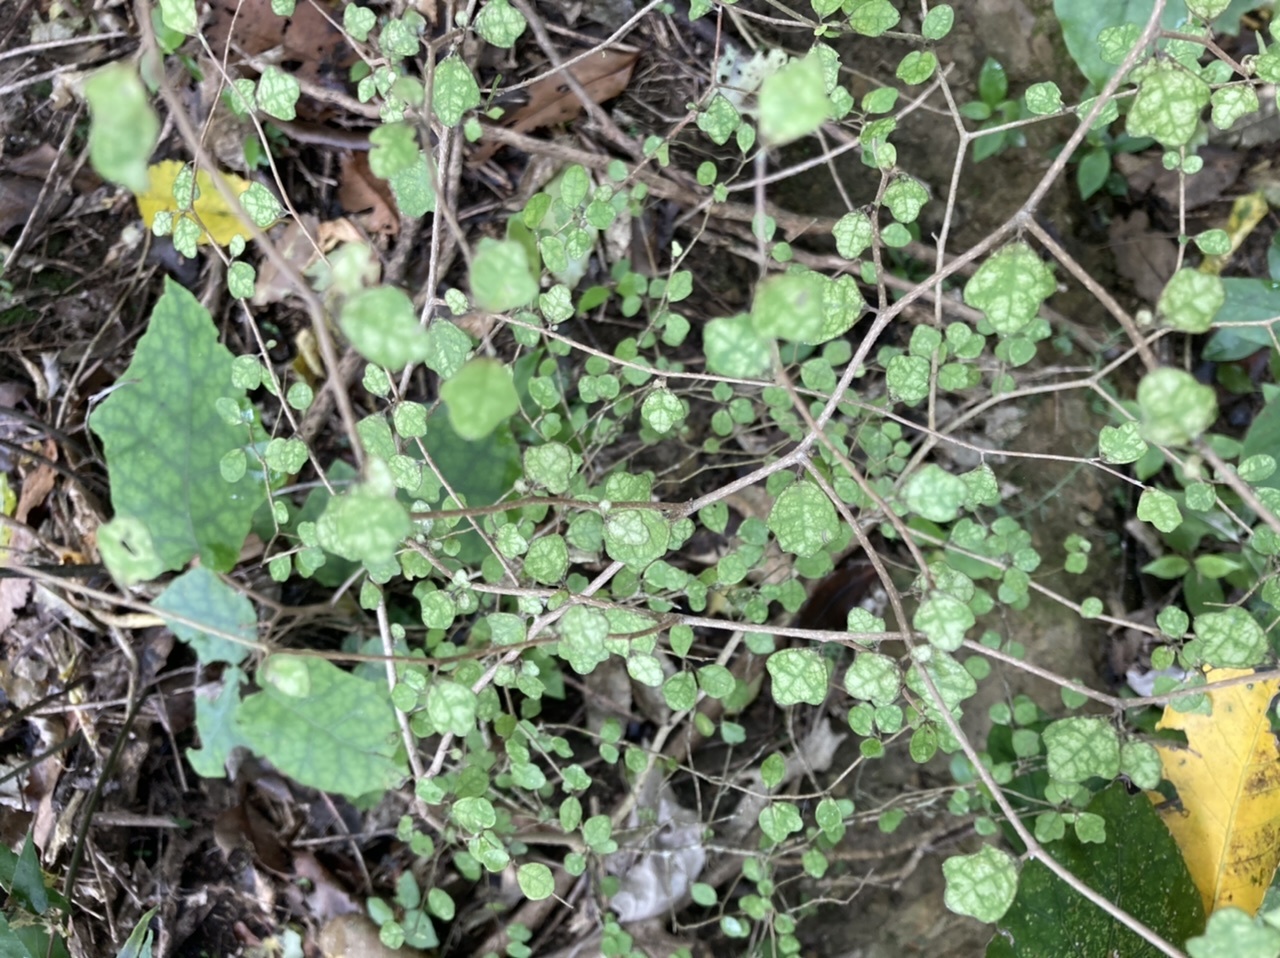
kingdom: Plantae
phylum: Tracheophyta
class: Magnoliopsida
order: Apiales
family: Pennantiaceae
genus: Pennantia
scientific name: Pennantia corymbosa
